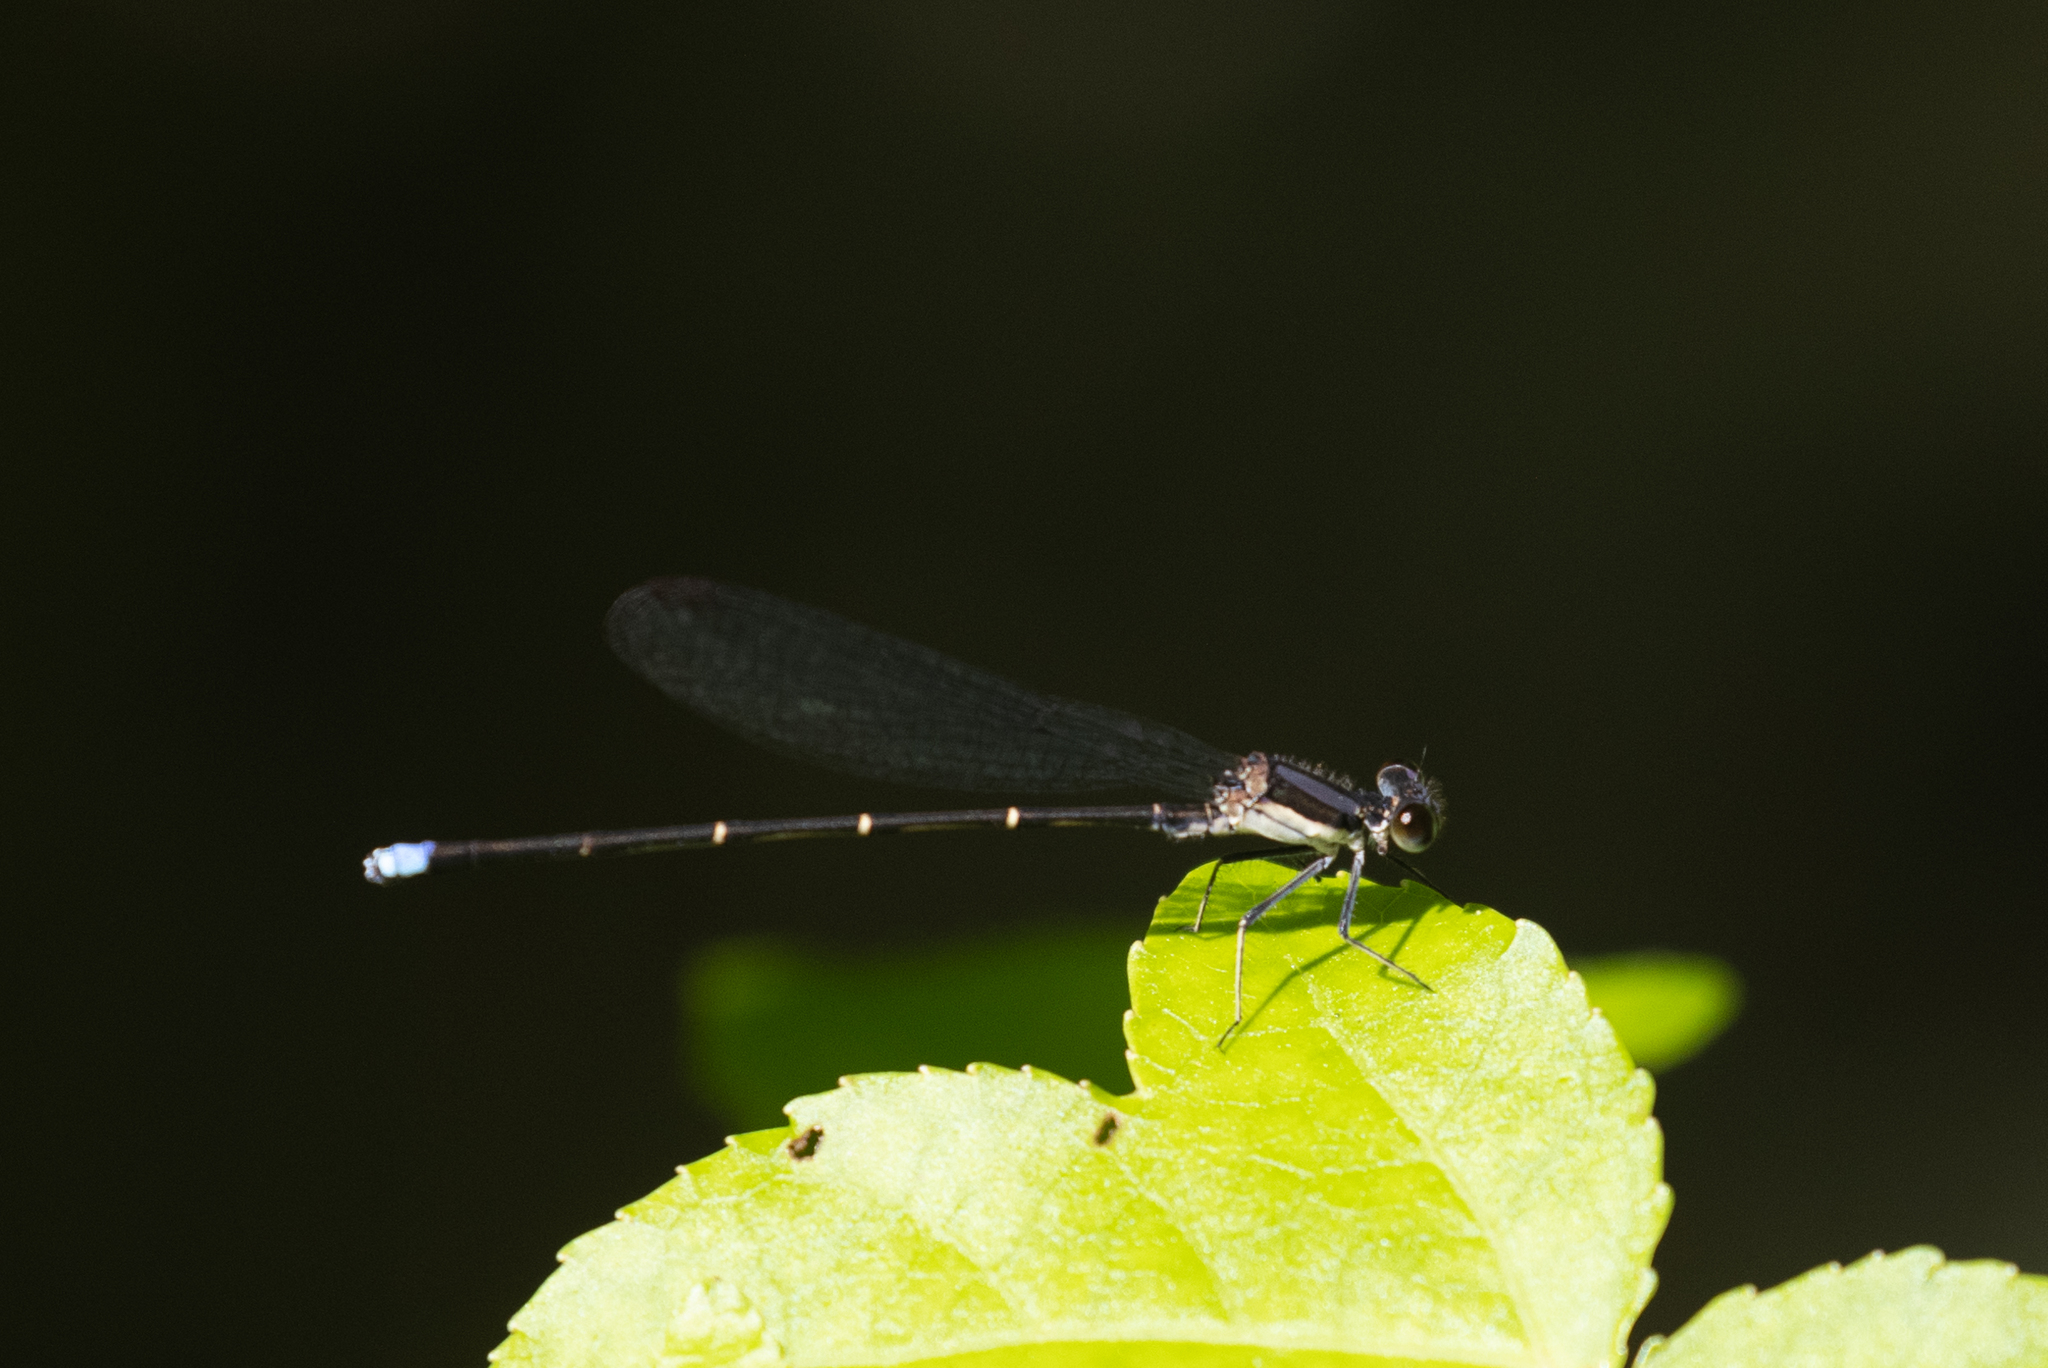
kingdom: Animalia
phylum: Arthropoda
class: Insecta
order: Odonata
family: Coenagrionidae
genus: Argia
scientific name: Argia tibialis
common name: Blue-tipped dancer
